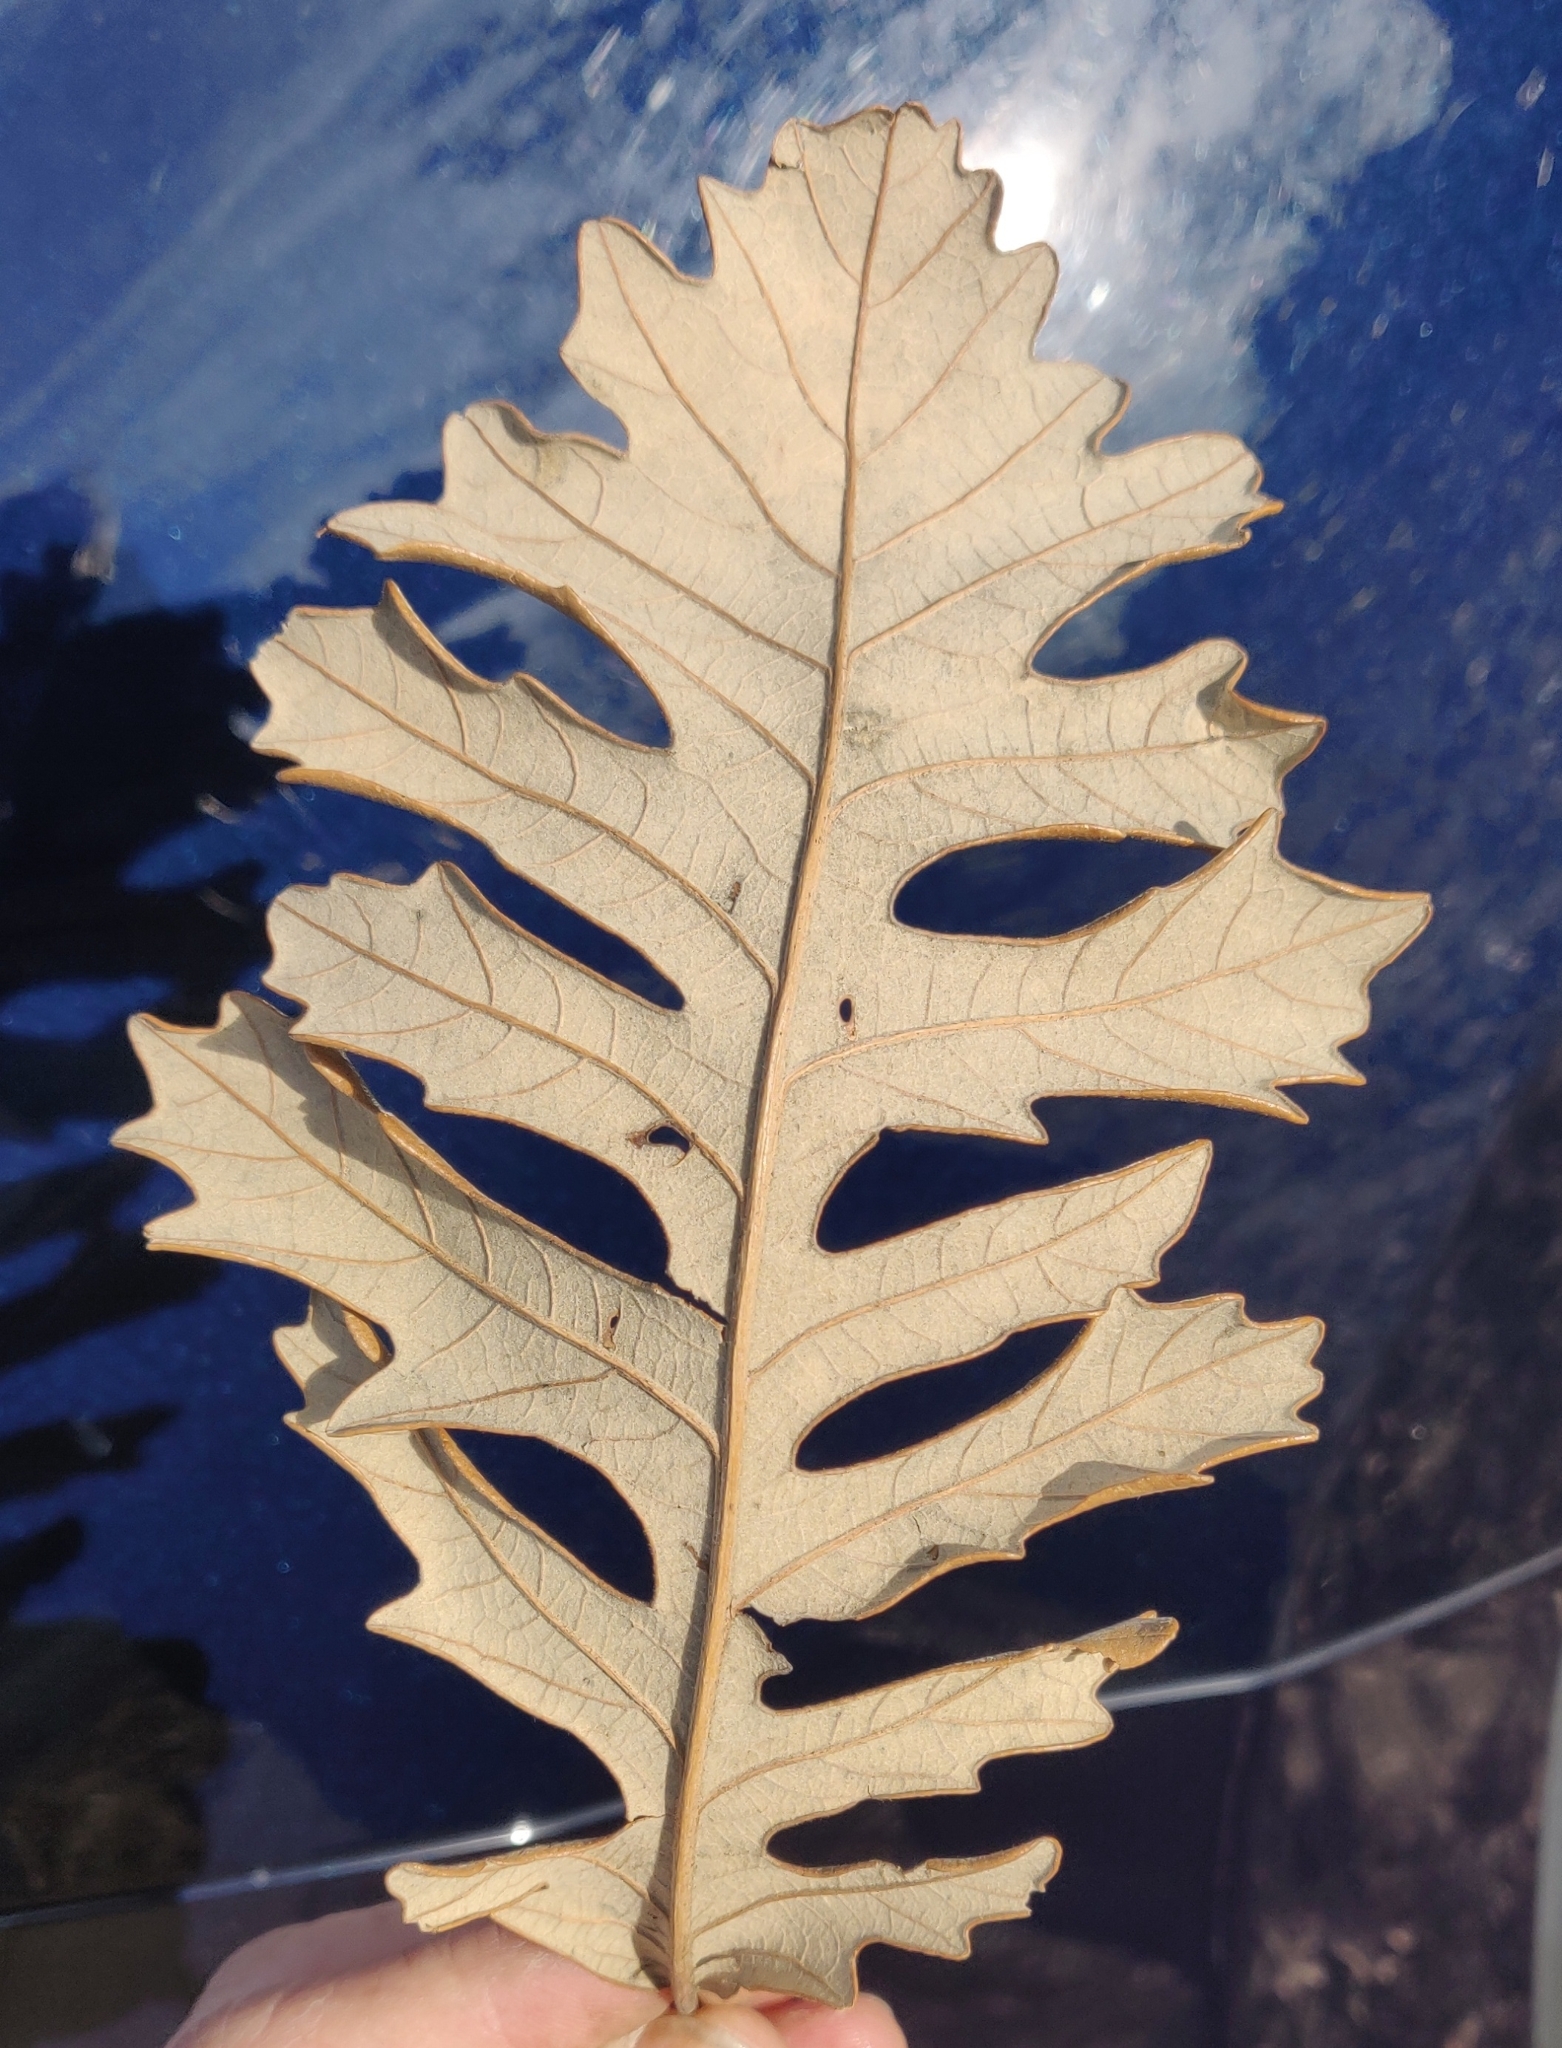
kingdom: Plantae
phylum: Tracheophyta
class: Magnoliopsida
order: Fagales
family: Fagaceae
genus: Quercus
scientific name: Quercus macrocarpa
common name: Bur oak
